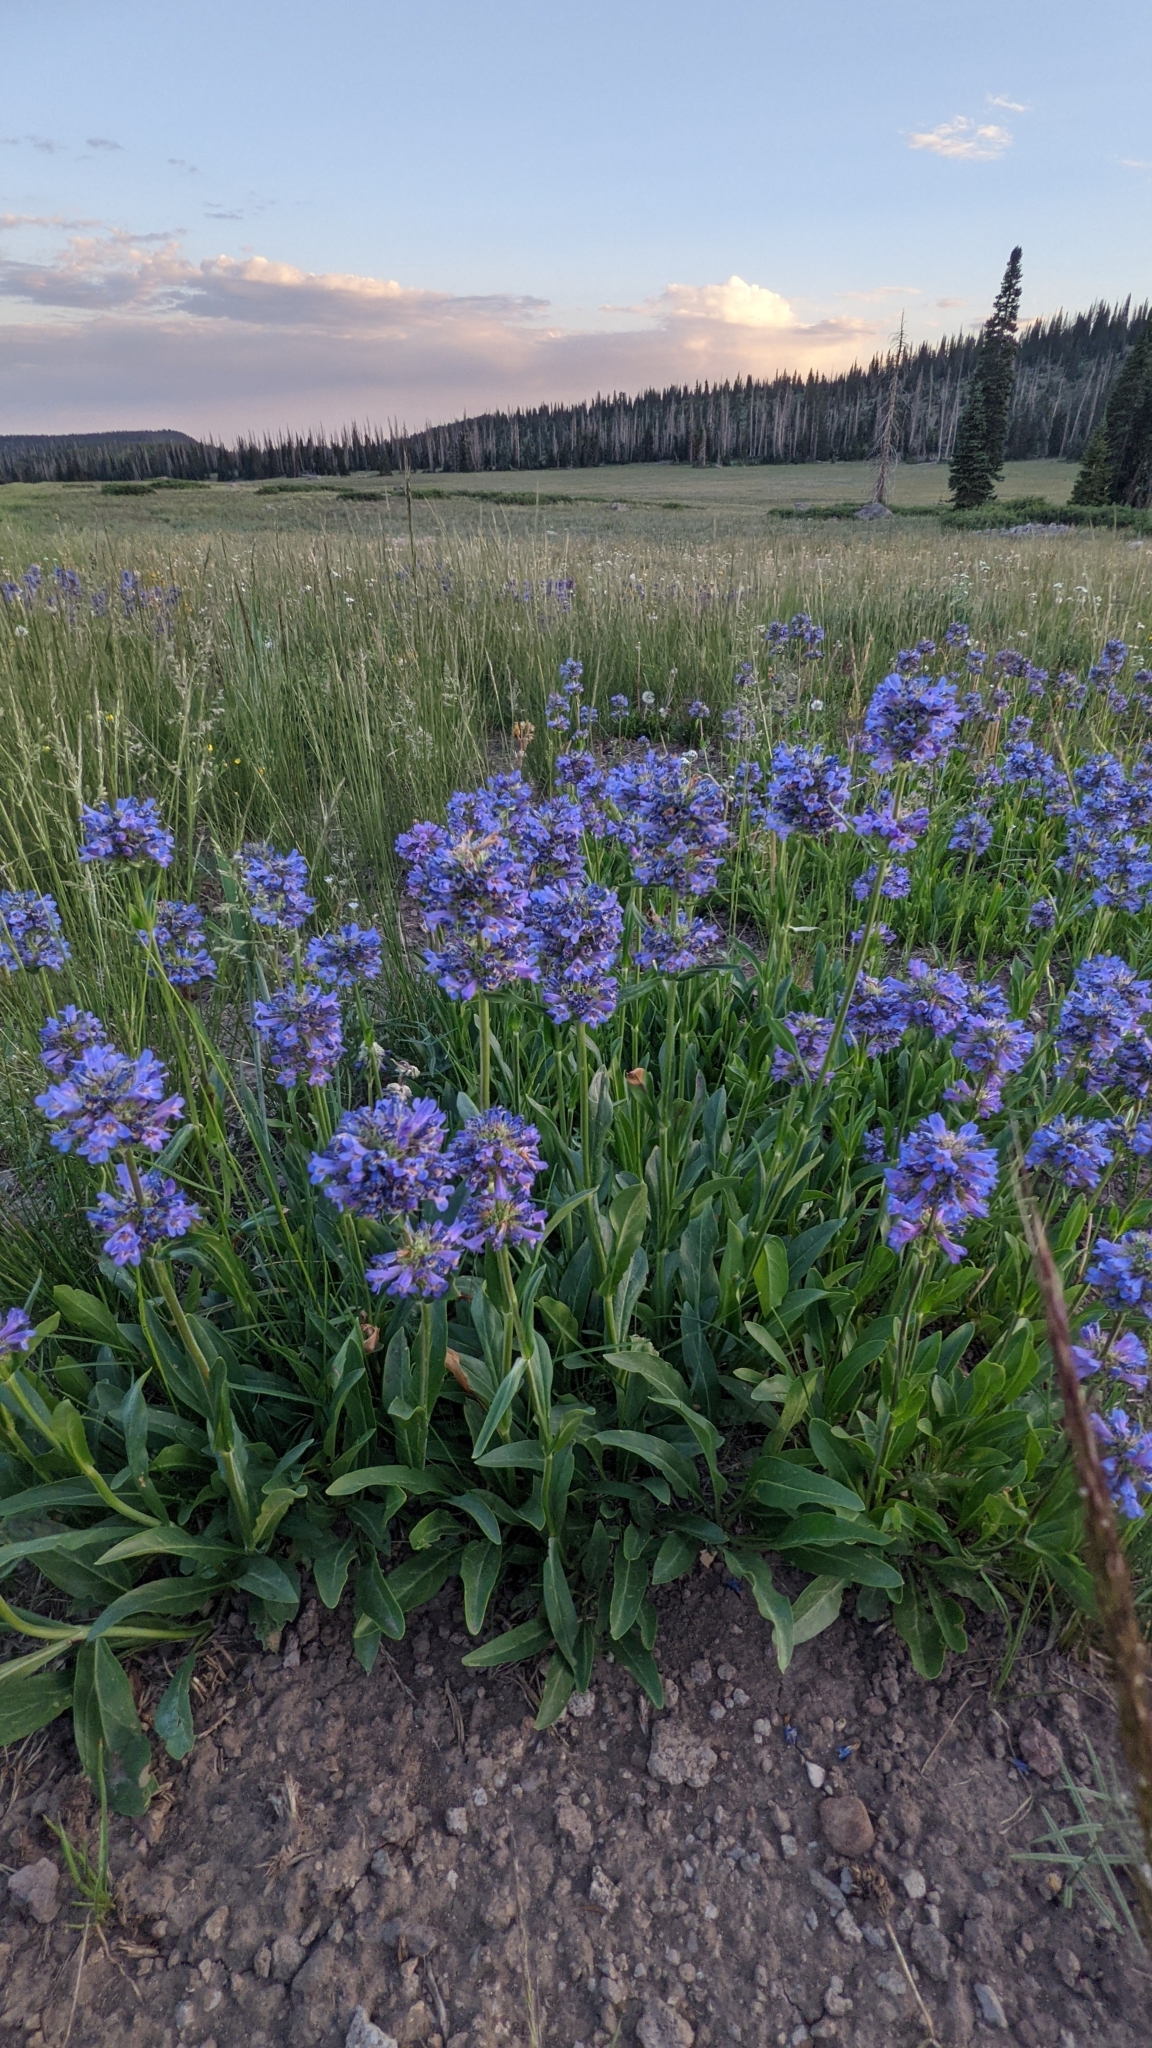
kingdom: Plantae
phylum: Tracheophyta
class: Magnoliopsida
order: Lamiales
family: Plantaginaceae
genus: Penstemon
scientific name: Penstemon rydbergii
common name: Rydberg's beardtongue
